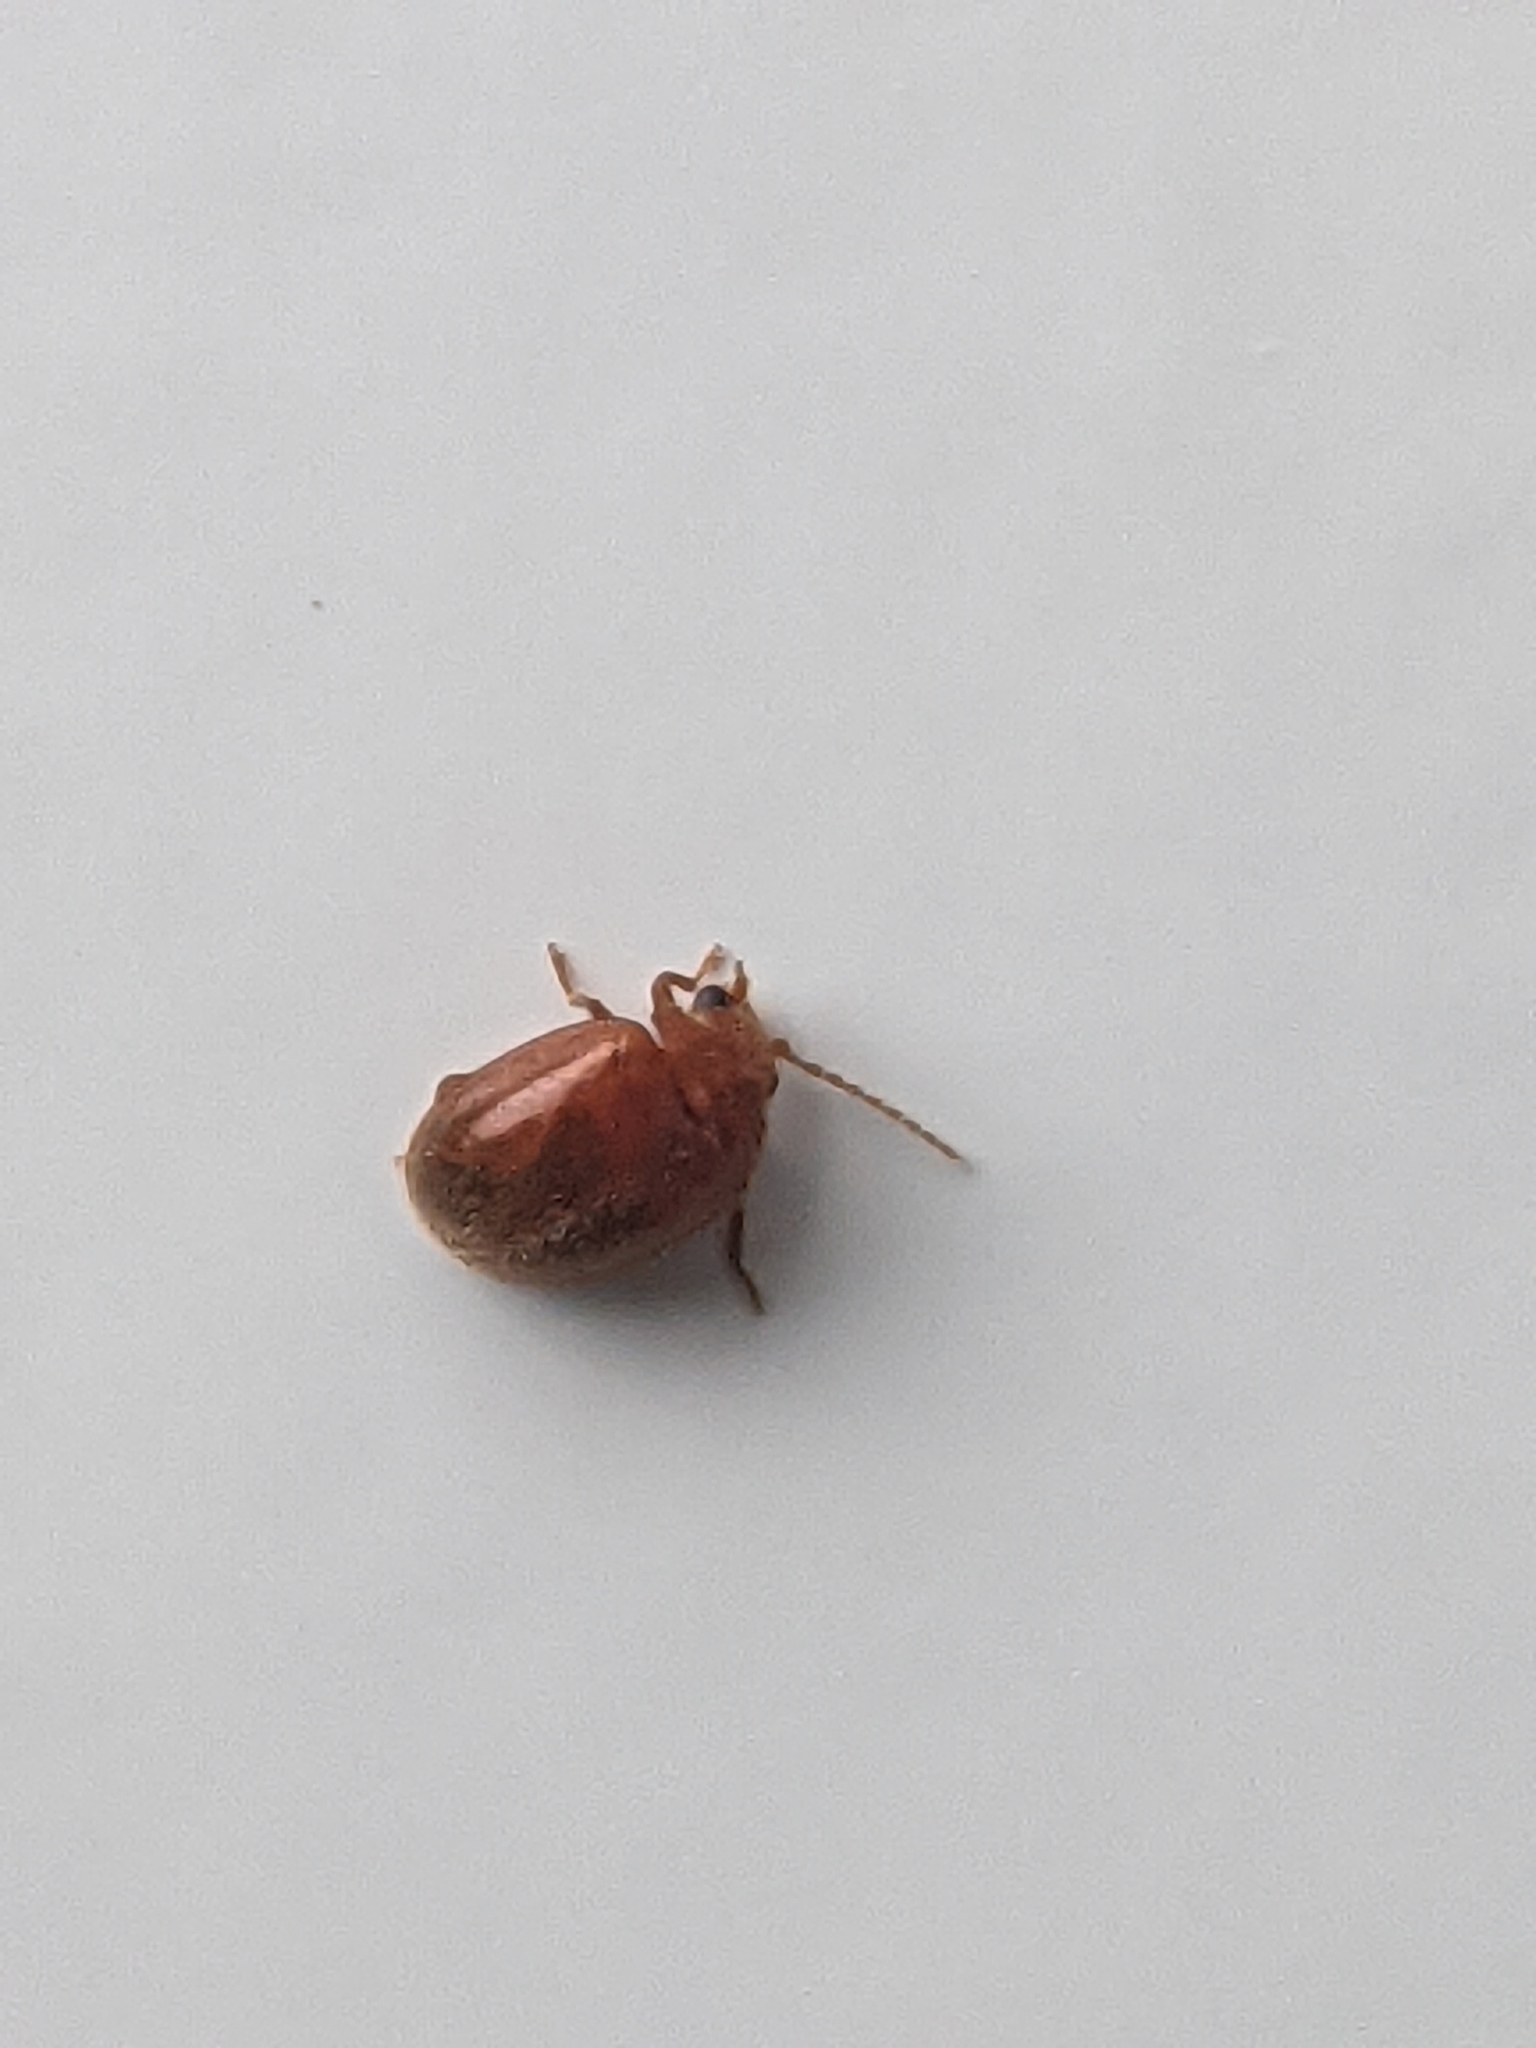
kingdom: Animalia
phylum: Arthropoda
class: Insecta
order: Coleoptera
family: Scirtidae
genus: Prionocyphon
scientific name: Prionocyphon serricornis
